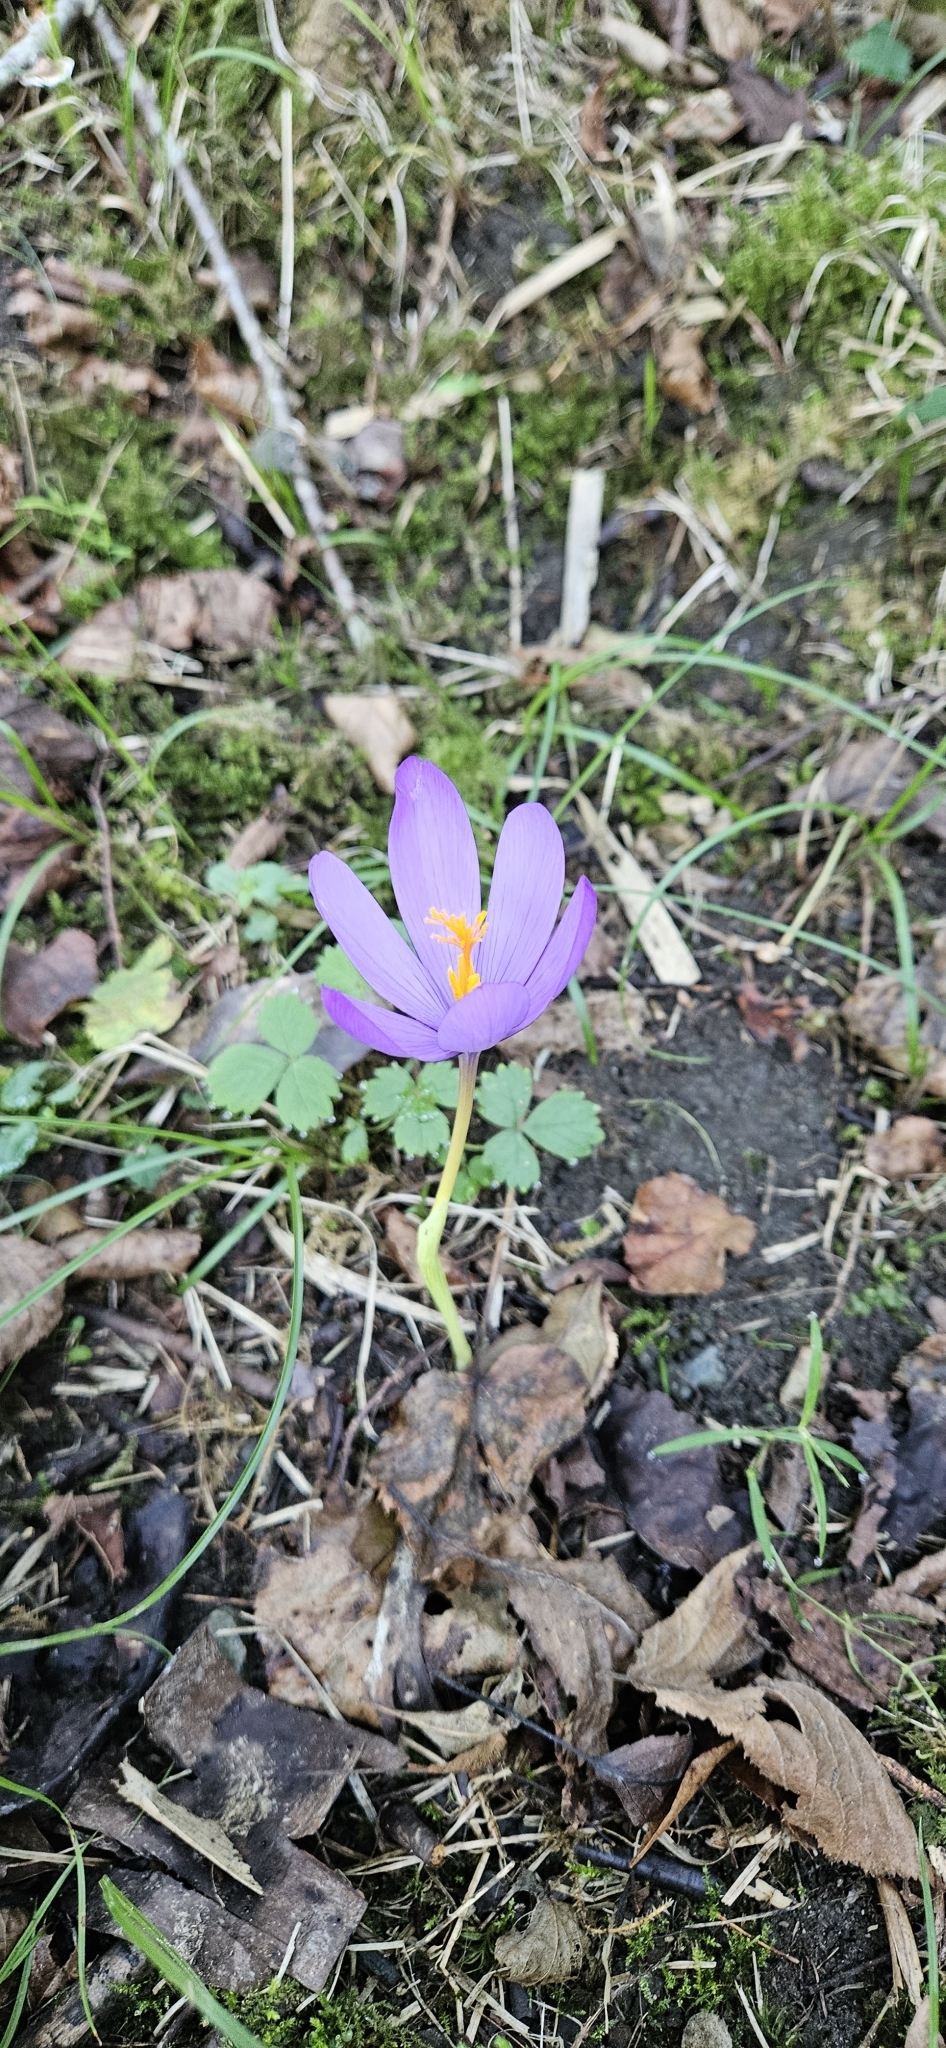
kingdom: Plantae
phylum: Tracheophyta
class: Liliopsida
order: Asparagales
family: Iridaceae
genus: Crocus
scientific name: Crocus nudiflorus
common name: Autumn crocus
